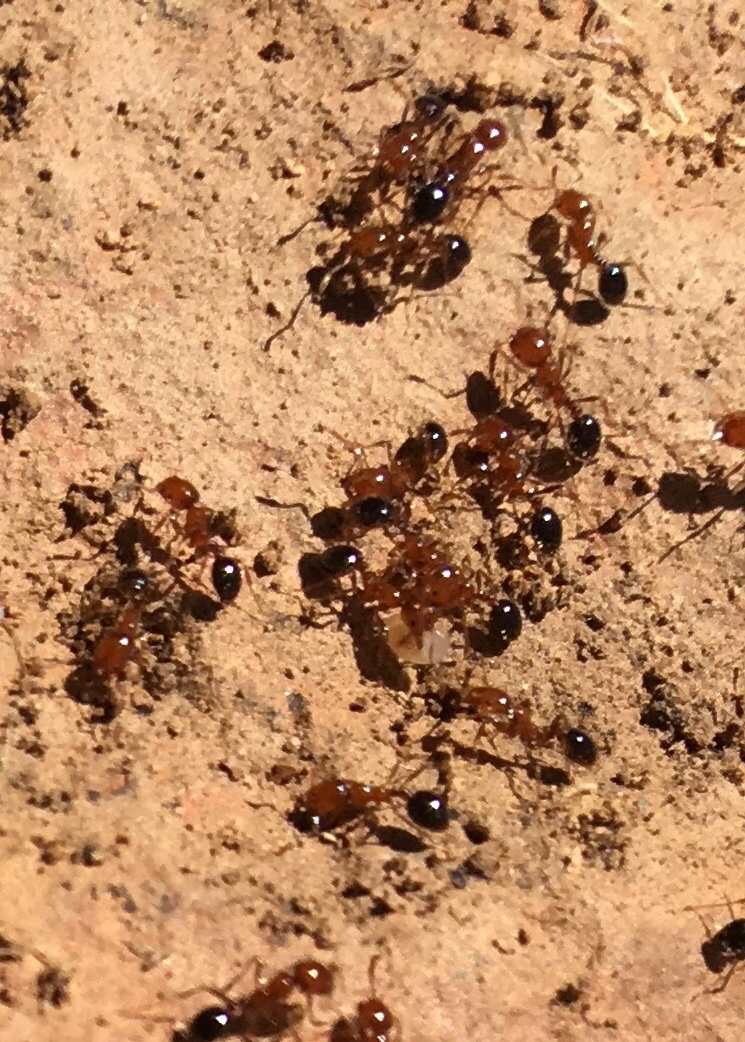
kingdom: Animalia
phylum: Arthropoda
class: Insecta
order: Hymenoptera
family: Formicidae
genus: Solenopsis
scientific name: Solenopsis xyloni
